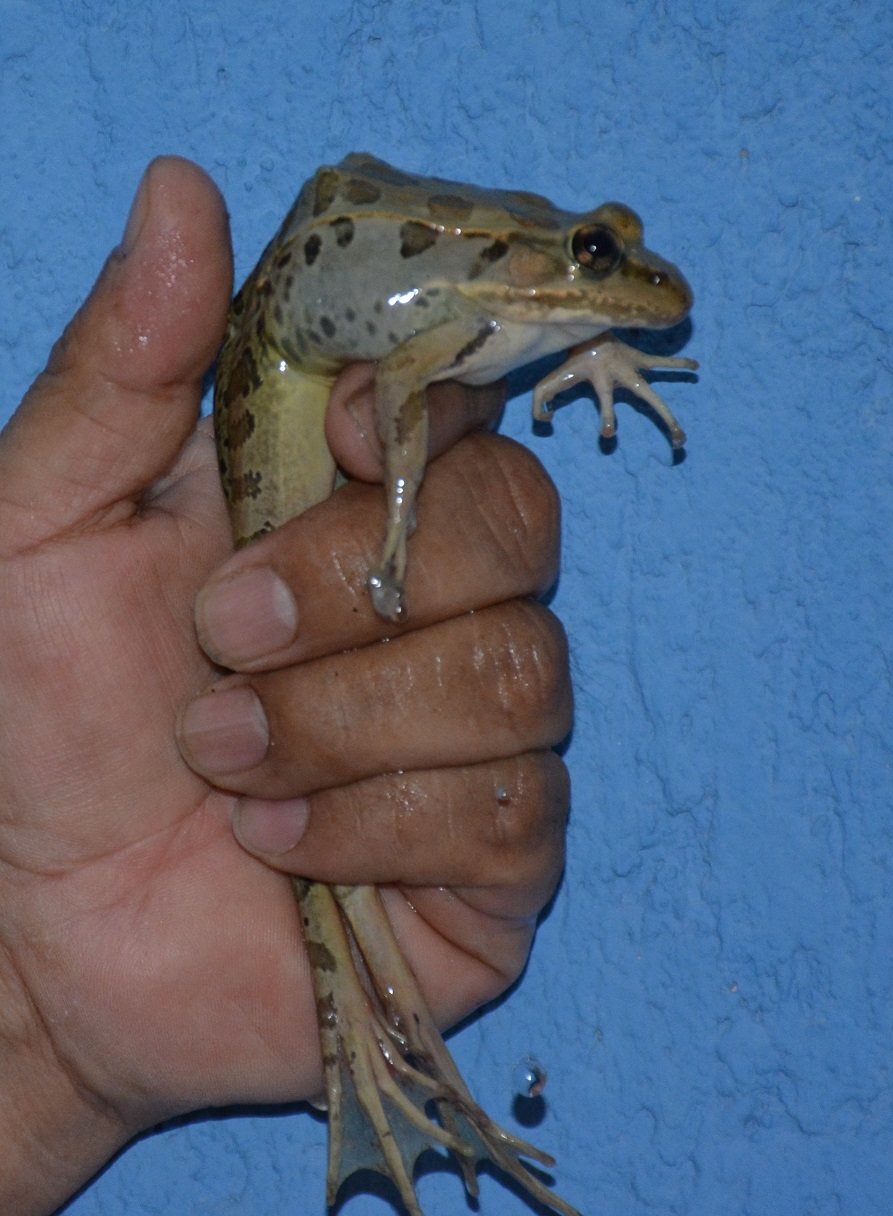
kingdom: Animalia
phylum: Chordata
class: Amphibia
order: Anura
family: Ranidae
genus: Lithobates
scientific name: Lithobates brownorum
